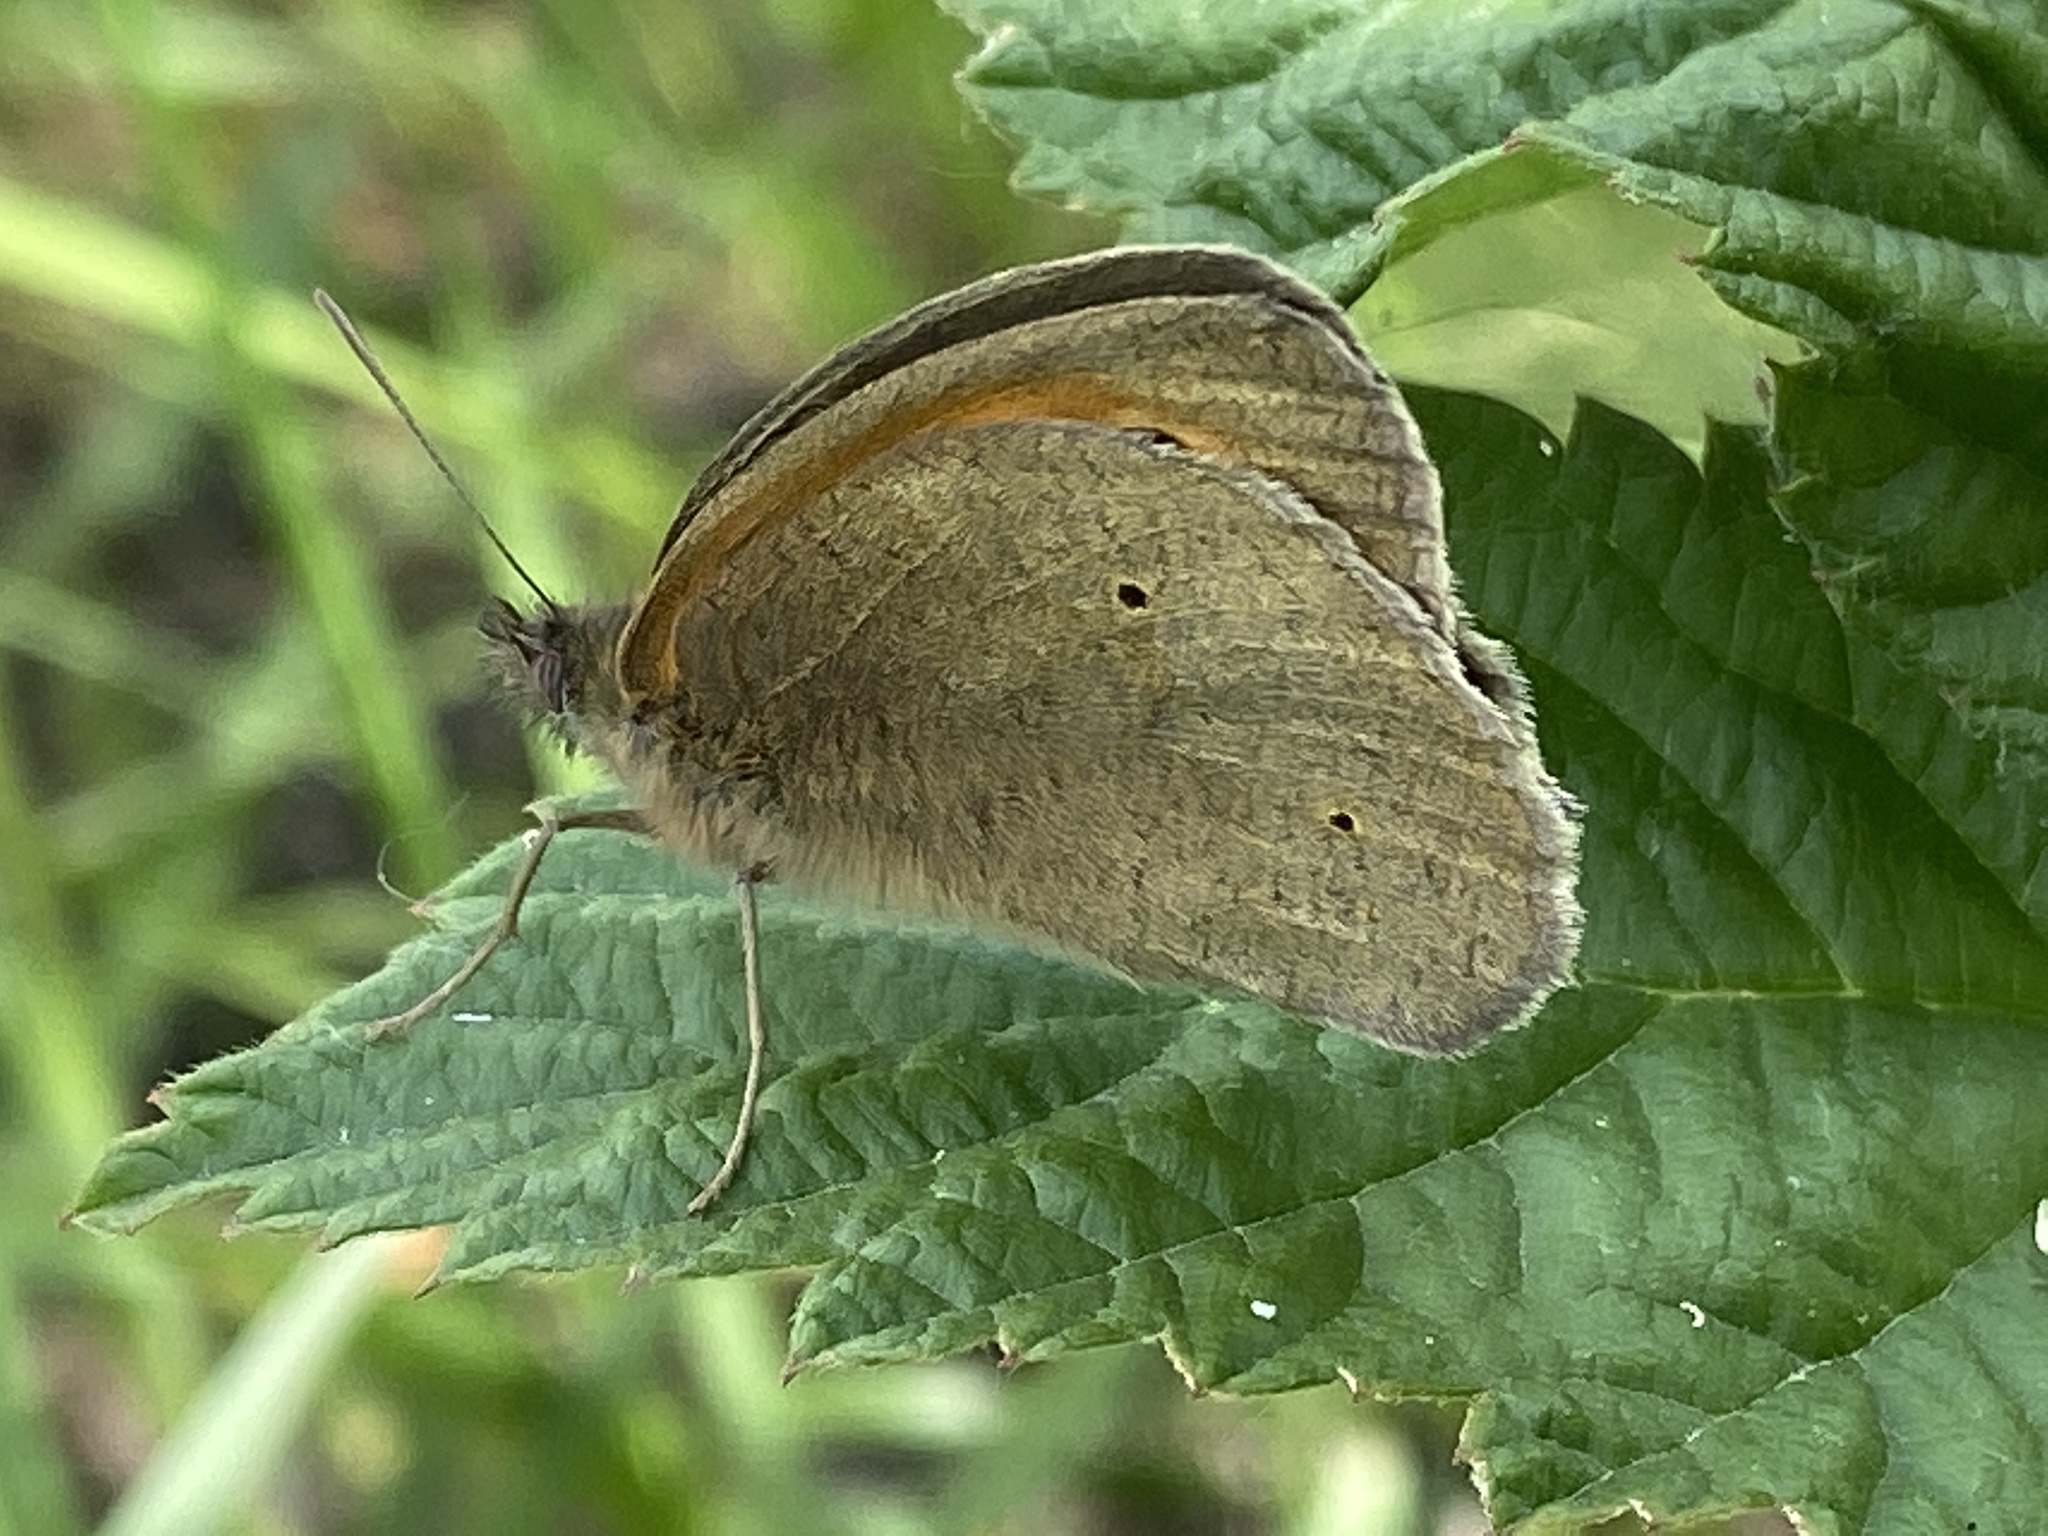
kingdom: Animalia
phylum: Arthropoda
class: Insecta
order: Lepidoptera
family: Nymphalidae
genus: Maniola
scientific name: Maniola jurtina
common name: Meadow brown
